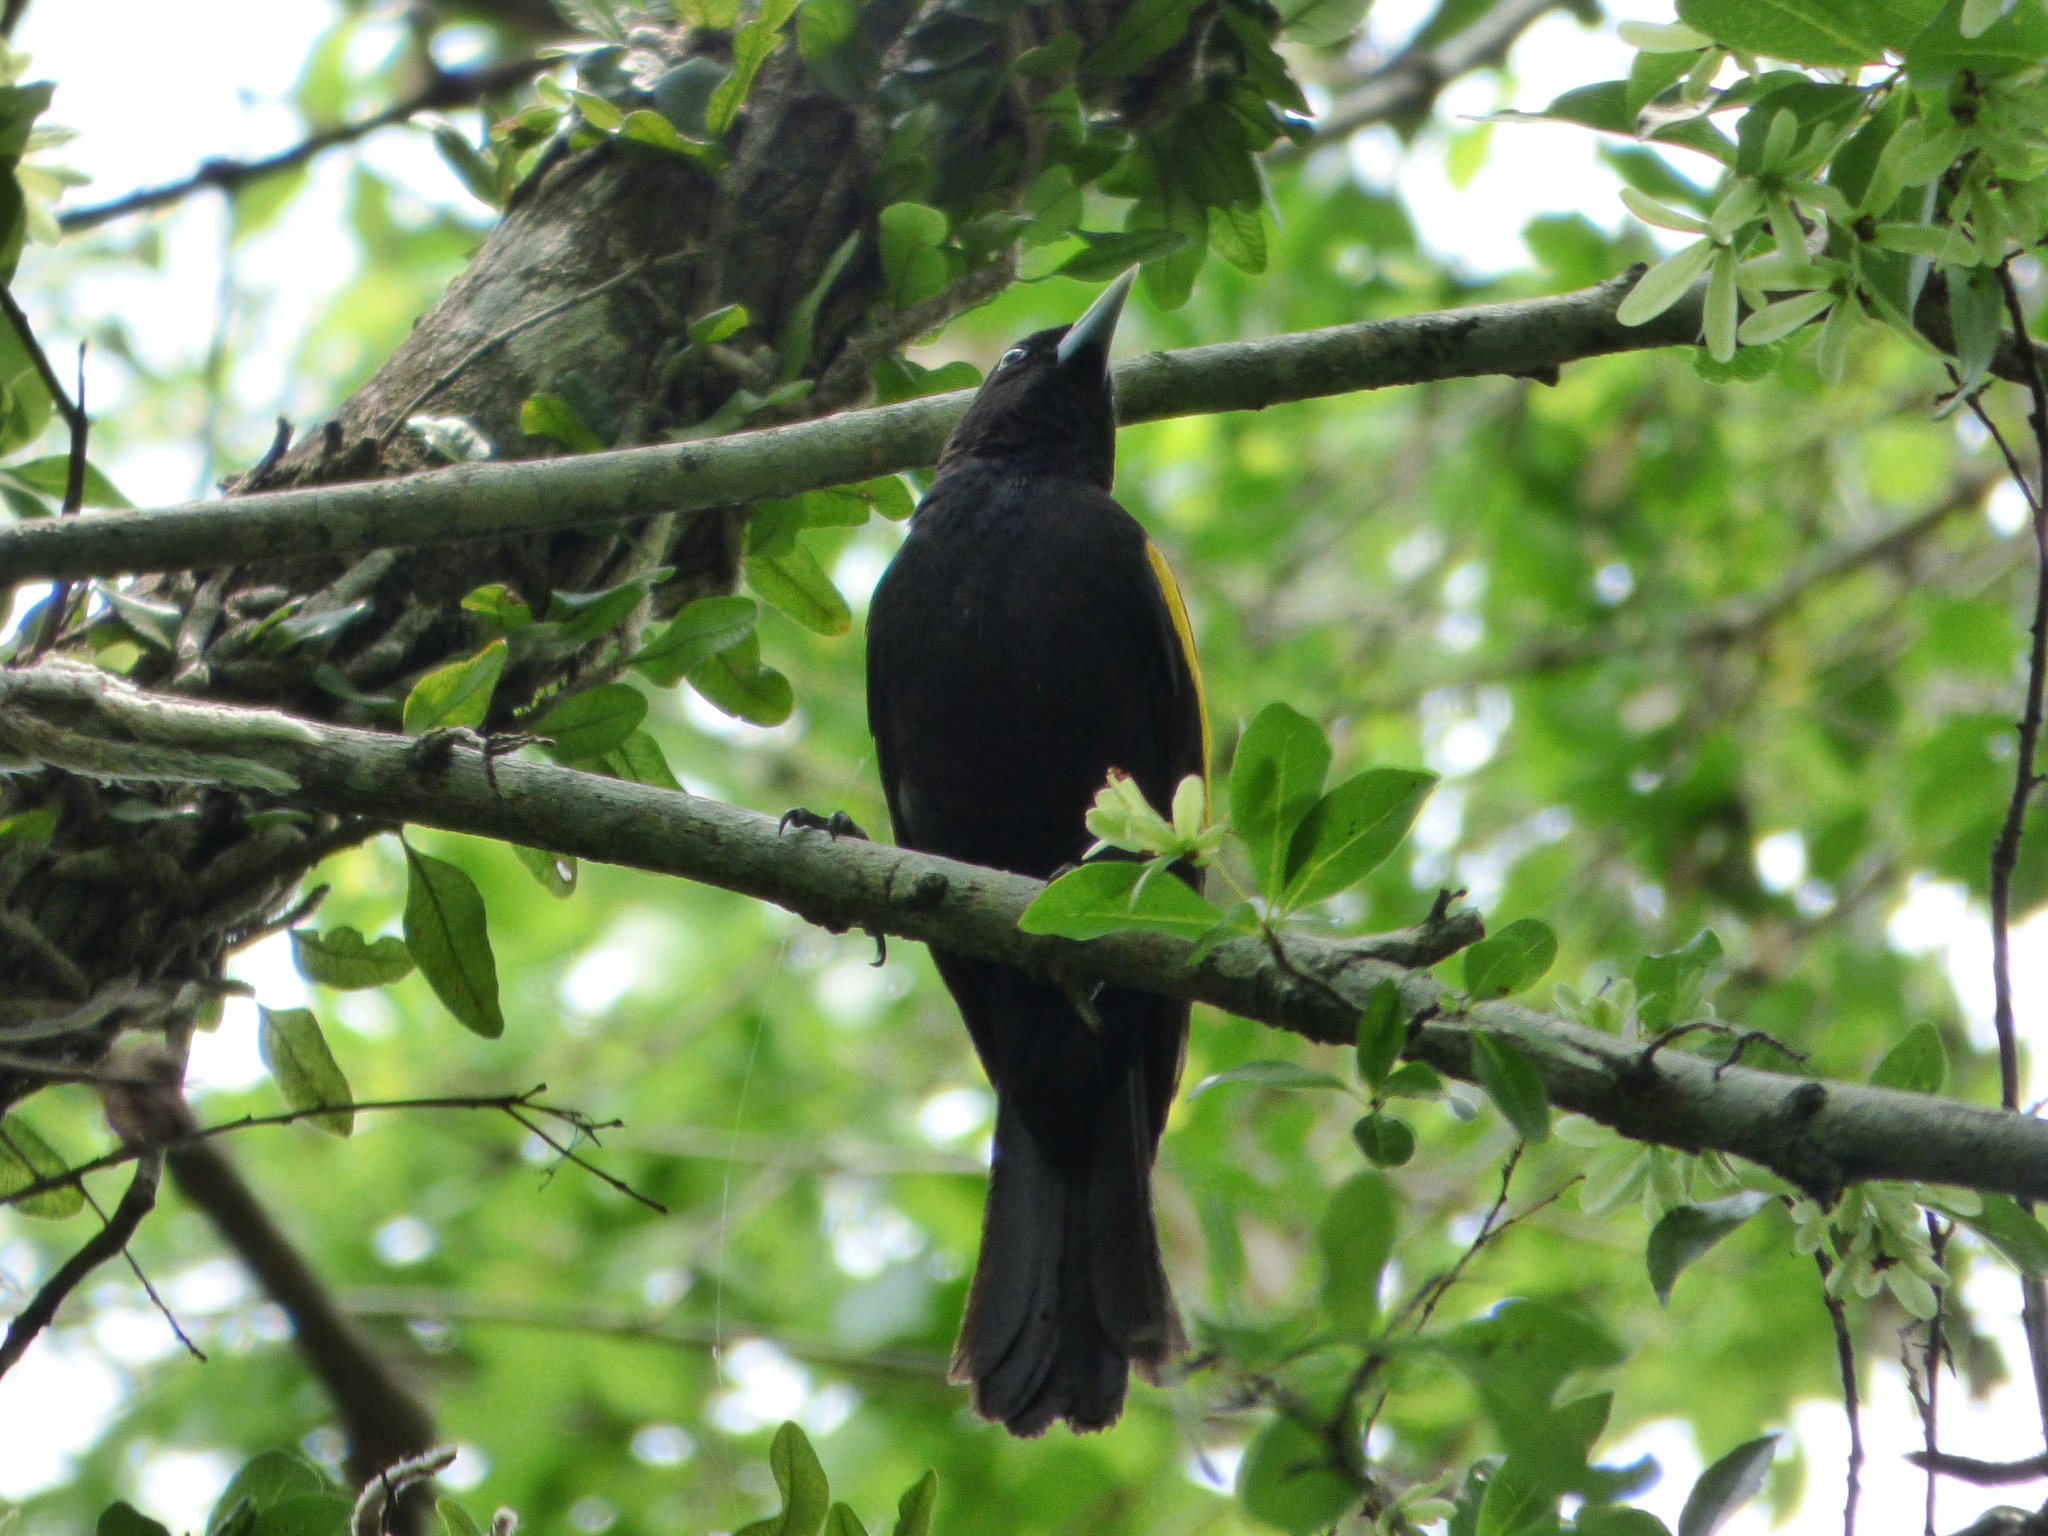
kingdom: Animalia
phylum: Chordata
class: Aves
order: Passeriformes
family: Icteridae
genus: Cacicus
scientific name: Cacicus chrysopterus
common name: Golden-winged cacique
